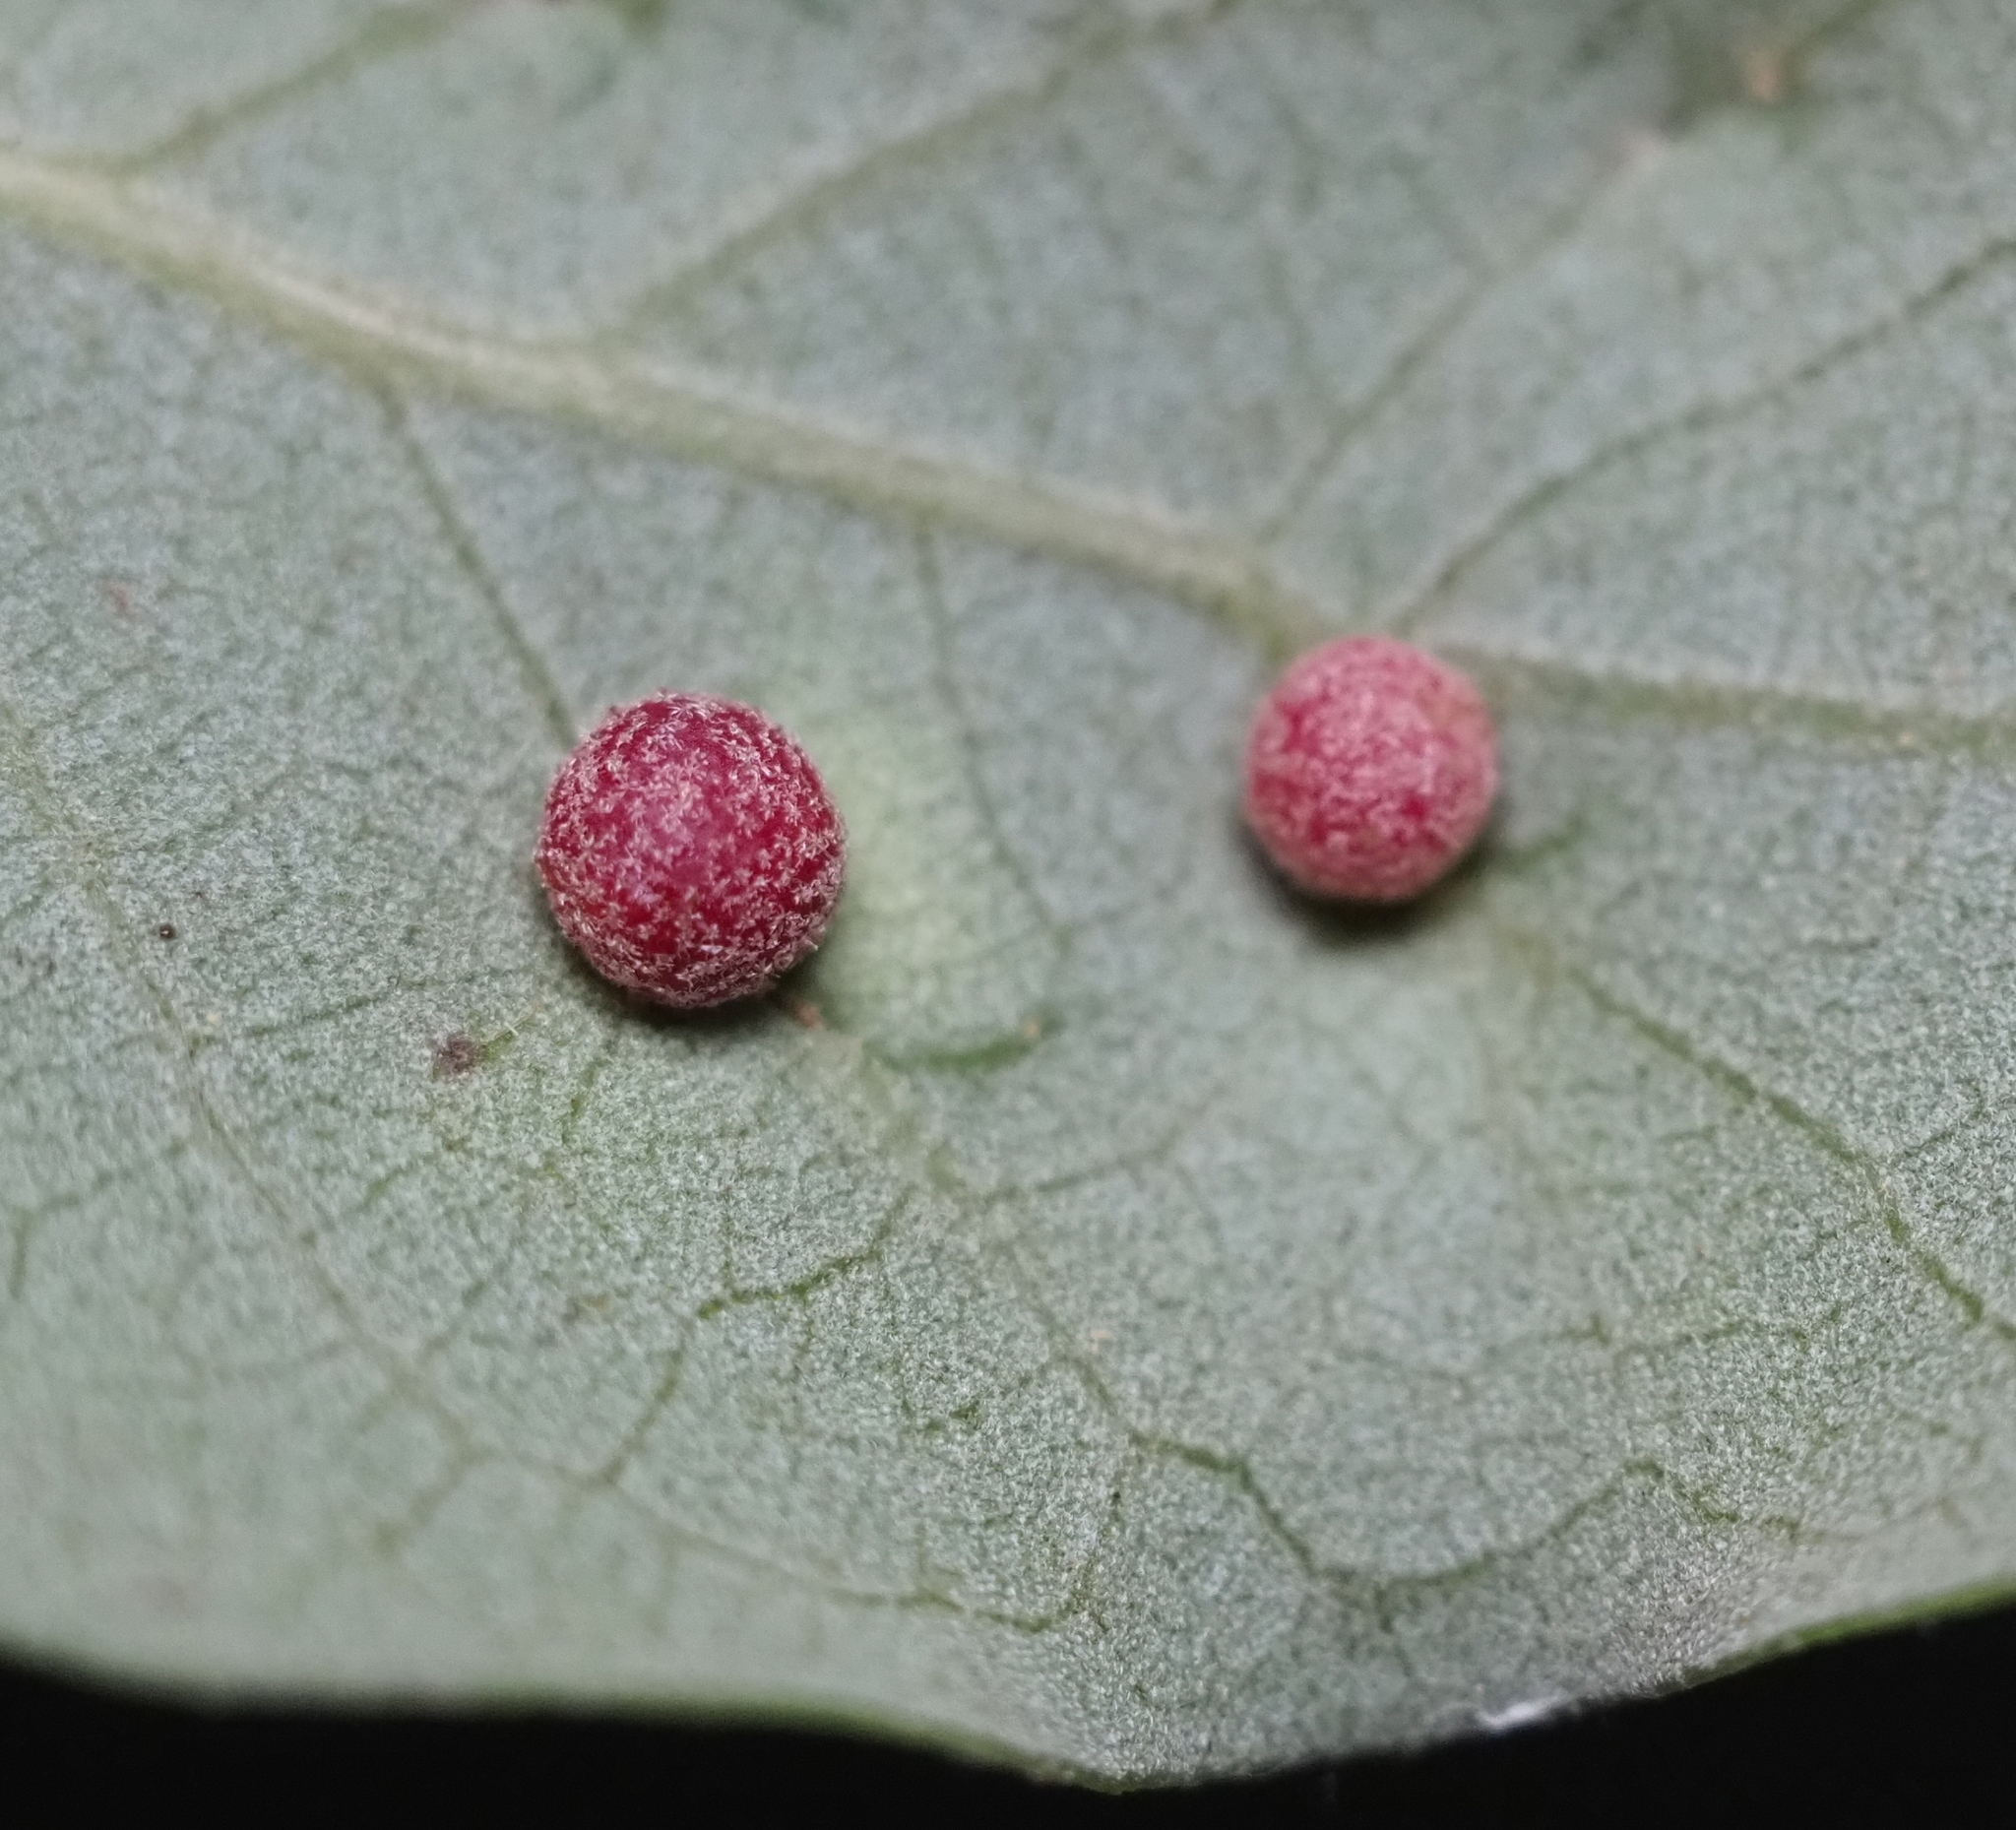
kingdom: Animalia
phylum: Arthropoda
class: Insecta
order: Hymenoptera
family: Cynipidae
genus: Belonocnema
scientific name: Belonocnema kinseyi
